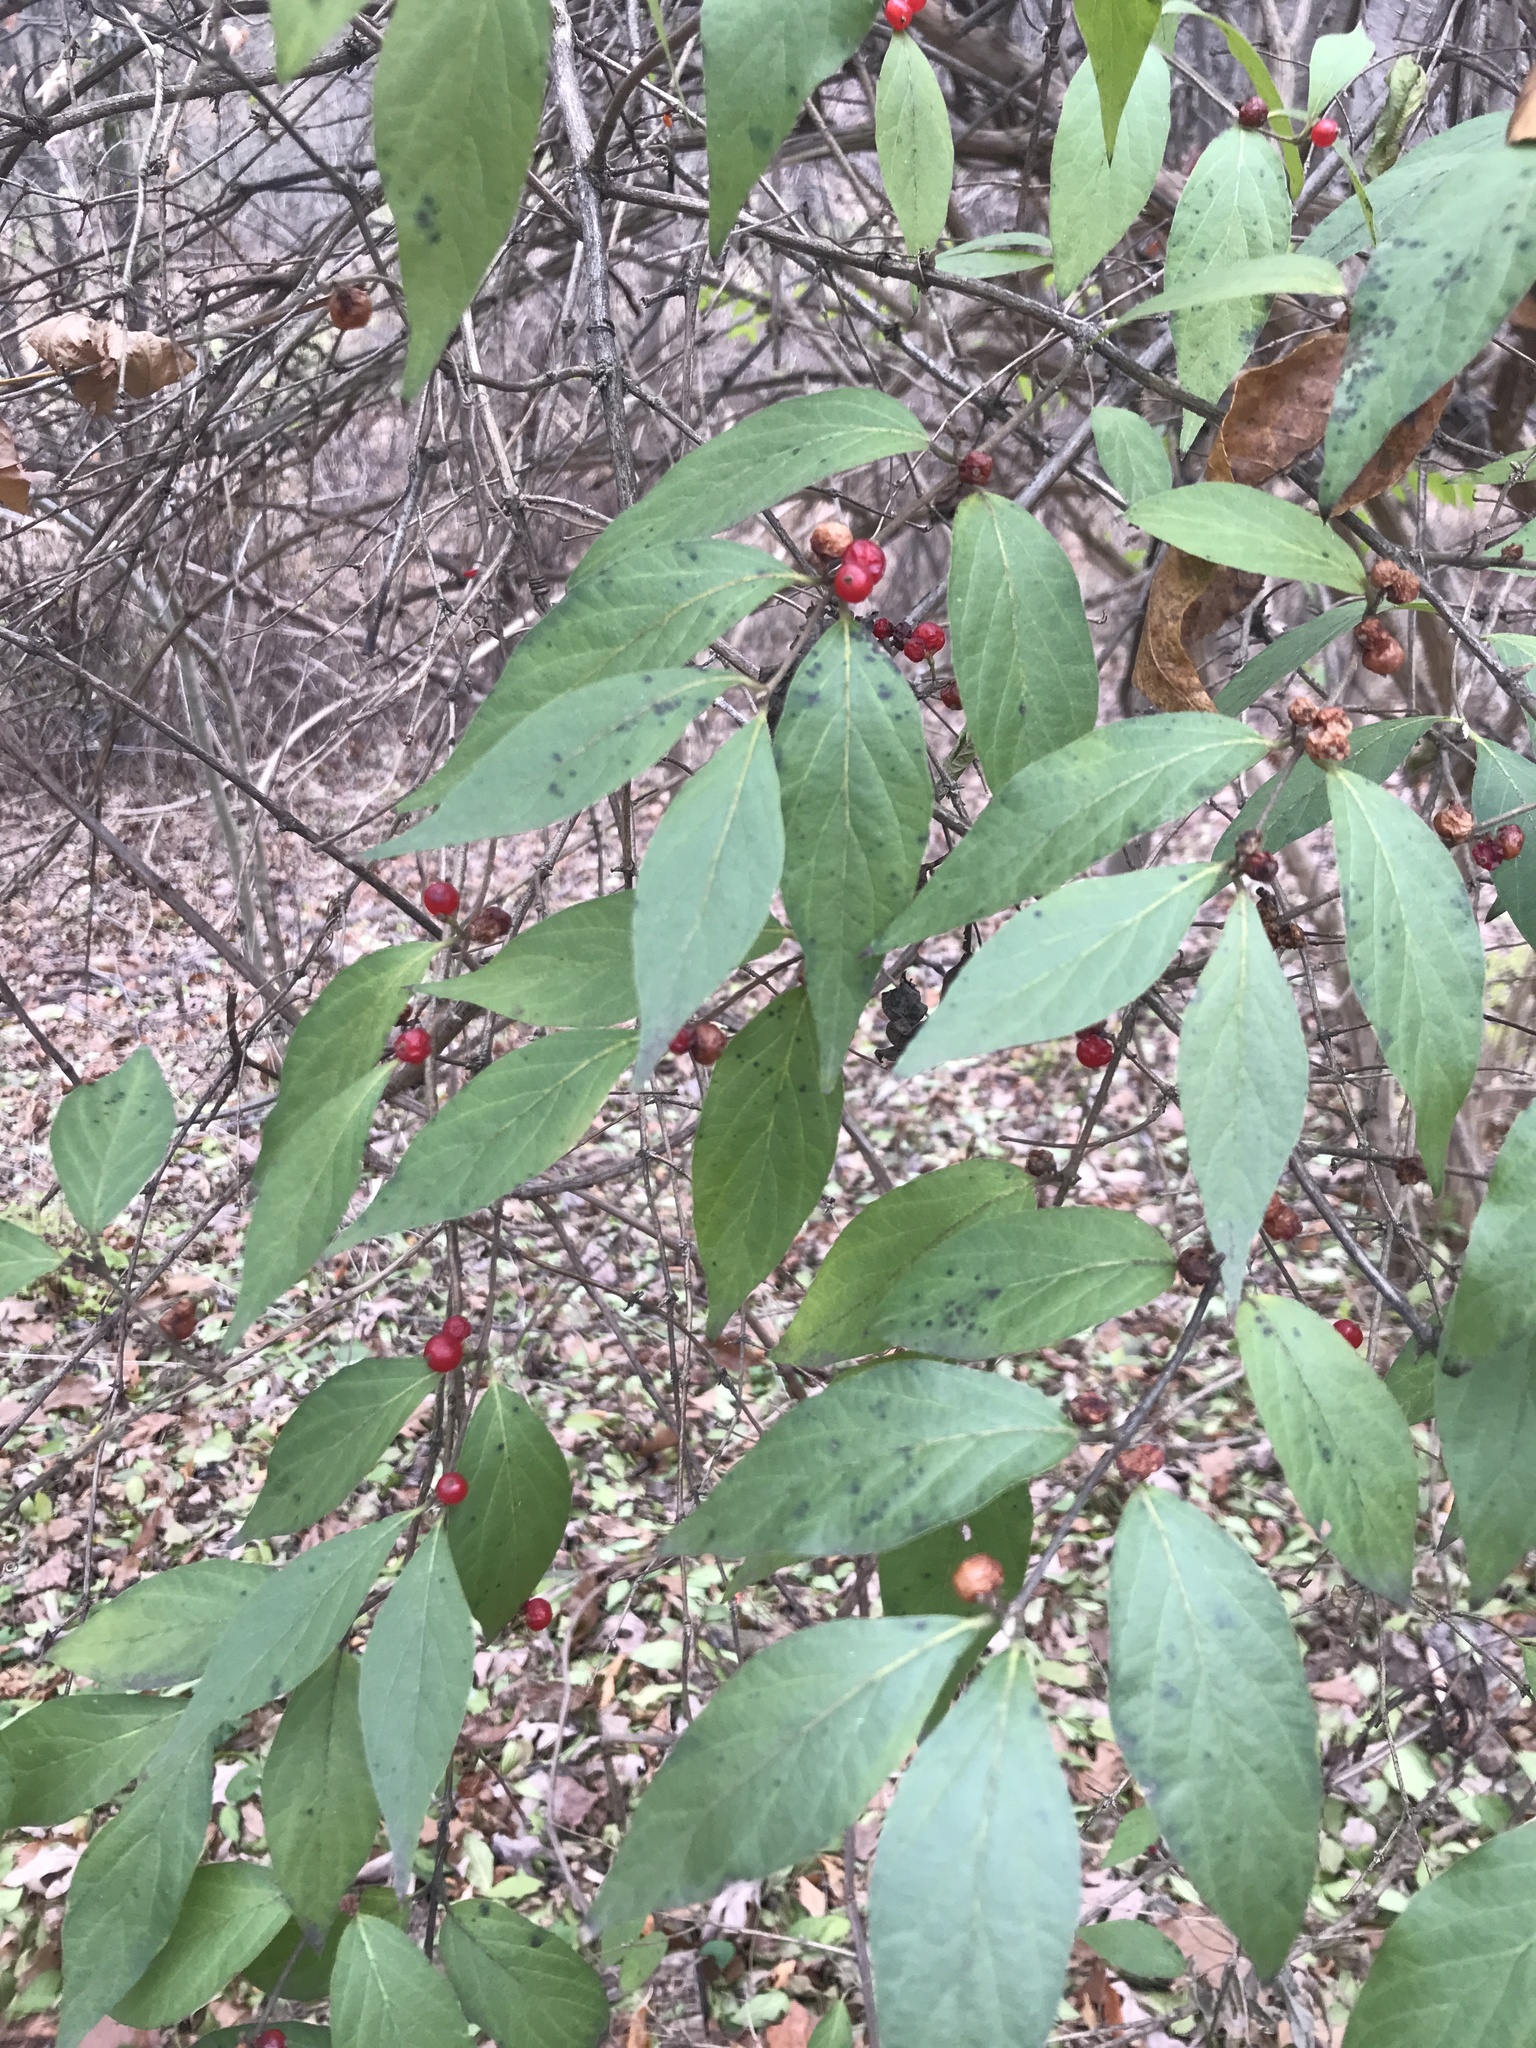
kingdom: Plantae
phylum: Tracheophyta
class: Magnoliopsida
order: Dipsacales
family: Caprifoliaceae
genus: Lonicera
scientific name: Lonicera maackii
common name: Amur honeysuckle
